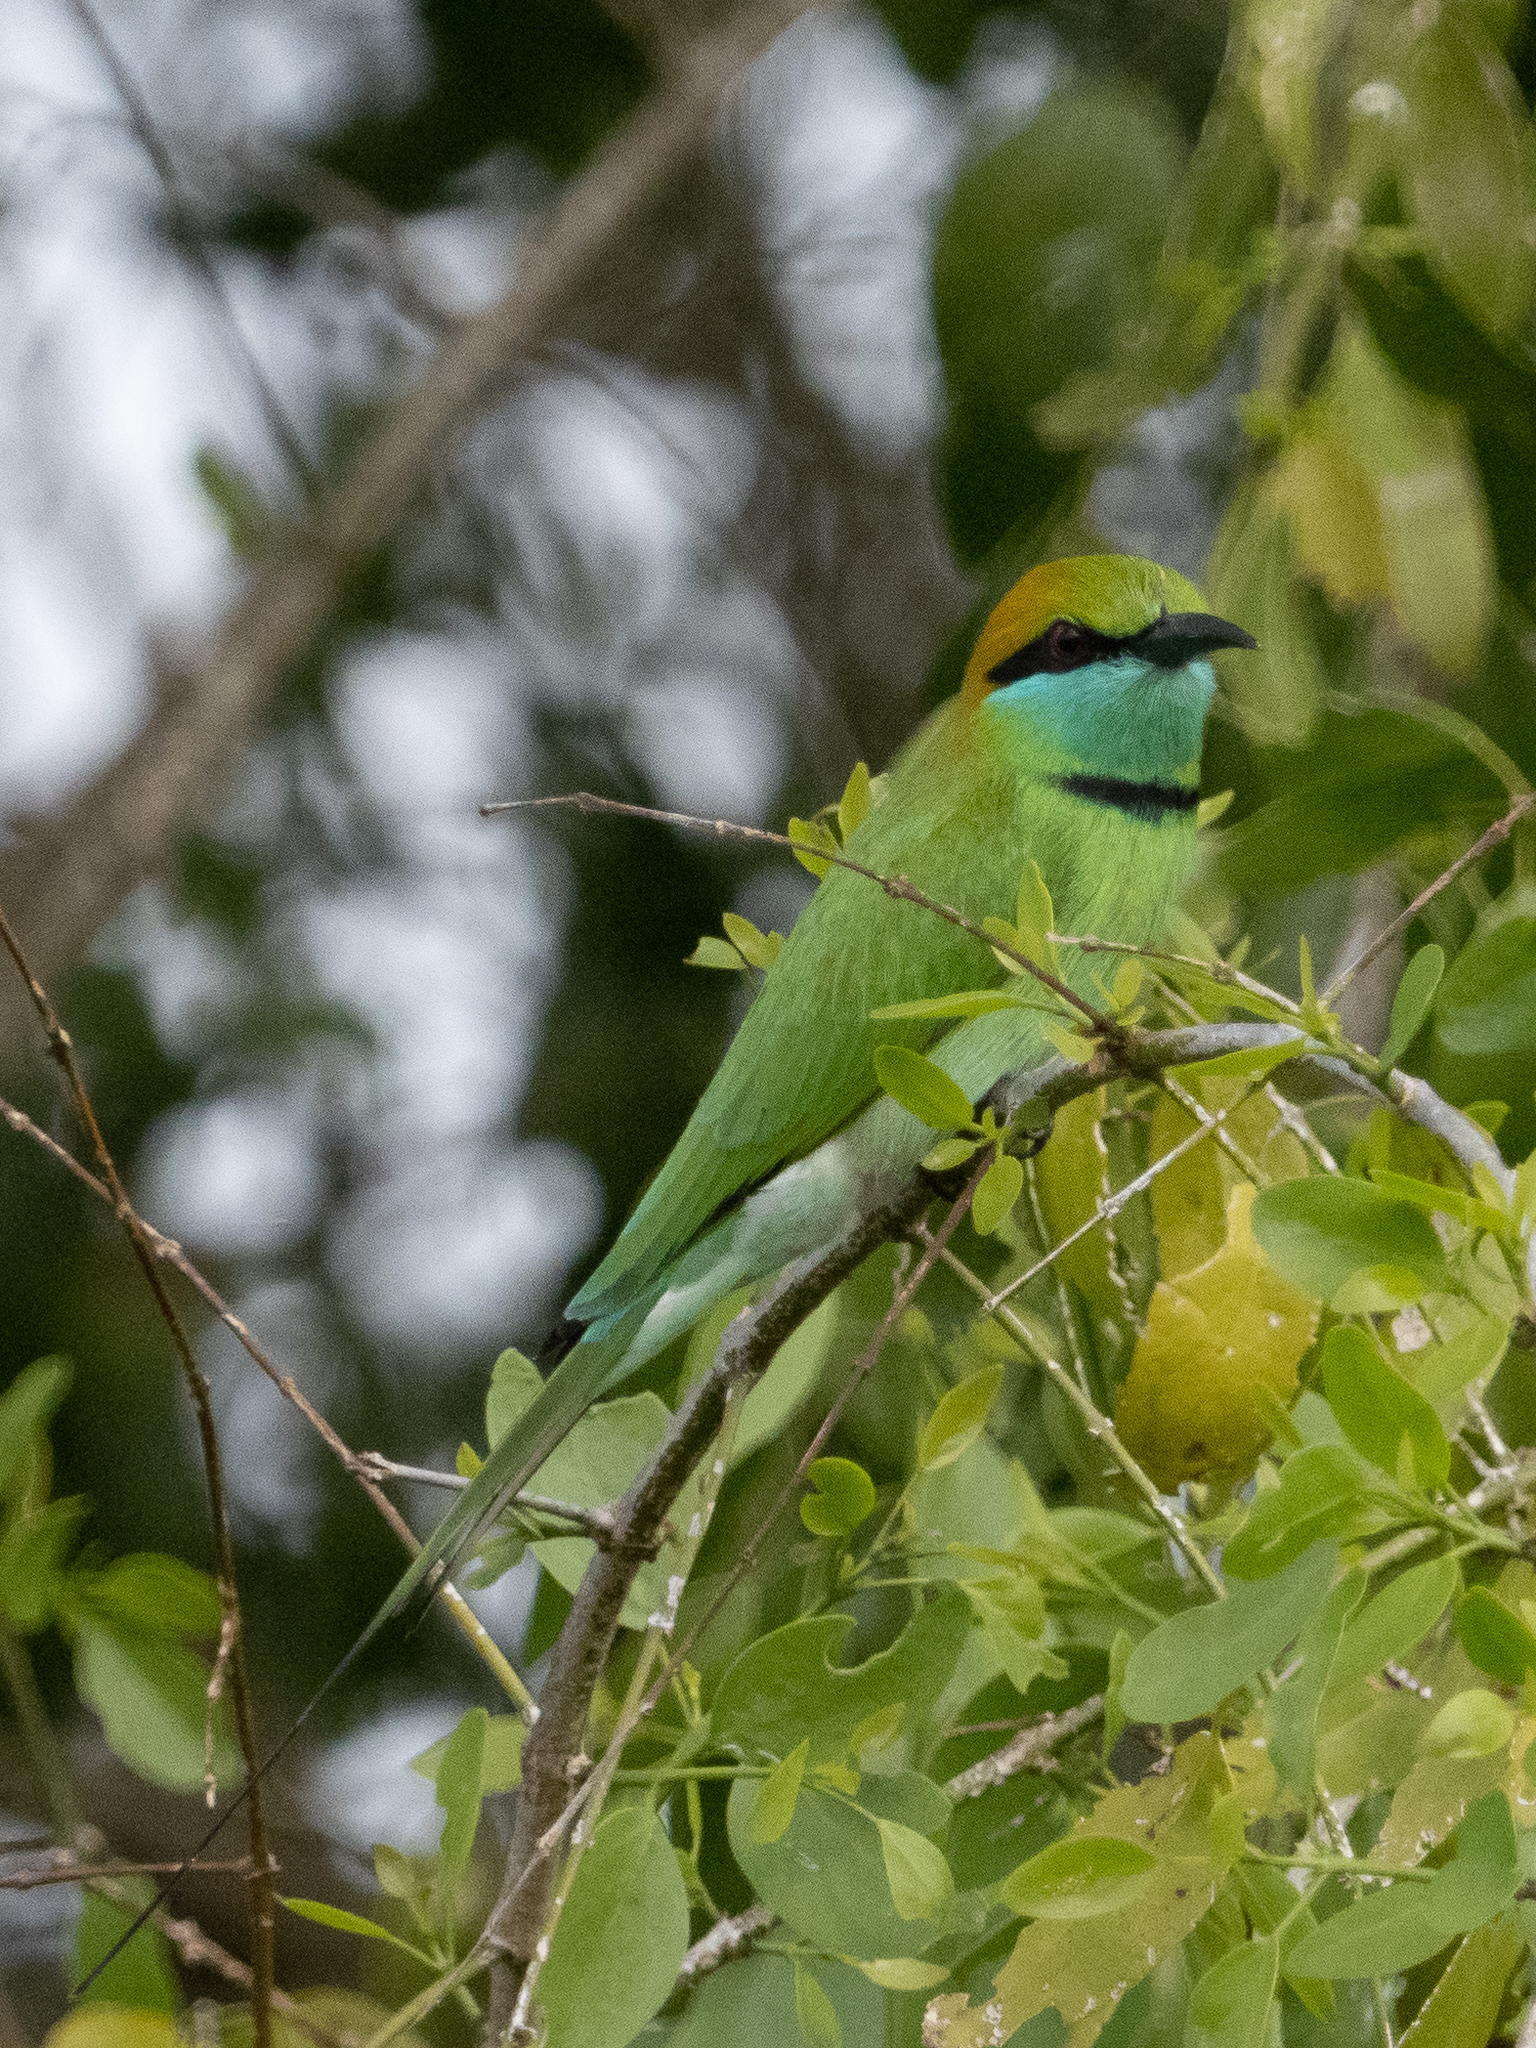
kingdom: Animalia
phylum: Chordata
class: Aves
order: Coraciiformes
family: Meropidae
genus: Merops
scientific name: Merops orientalis
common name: Green bee-eater
